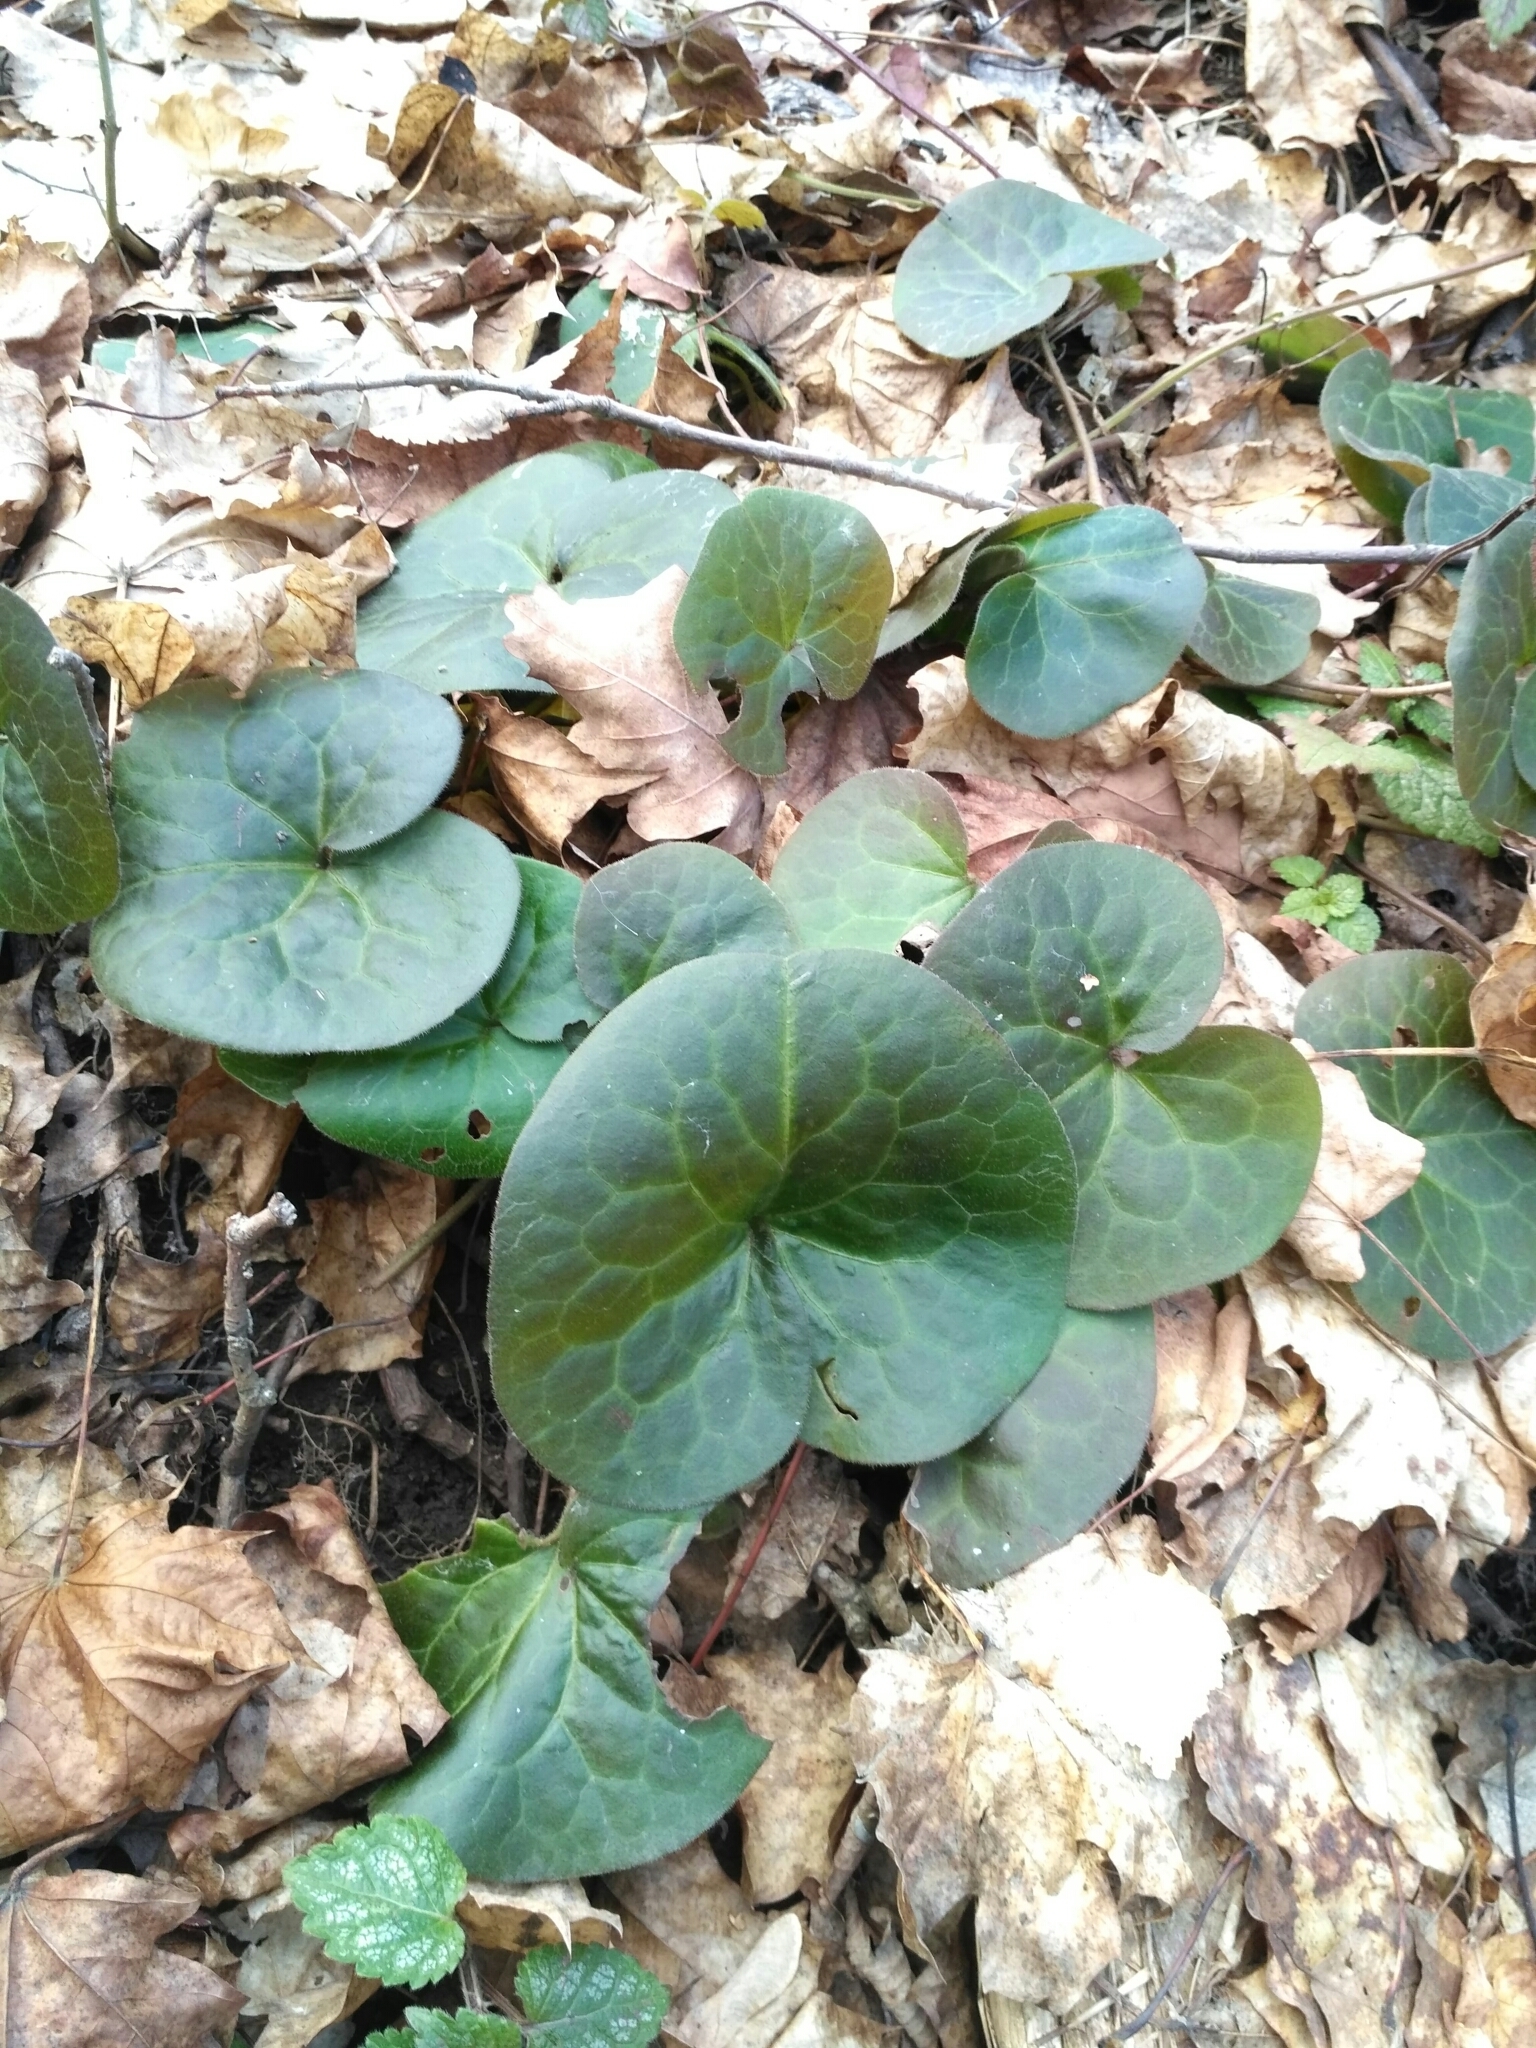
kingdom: Plantae
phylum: Tracheophyta
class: Magnoliopsida
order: Piperales
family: Aristolochiaceae
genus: Asarum
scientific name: Asarum europaeum
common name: Asarabacca
